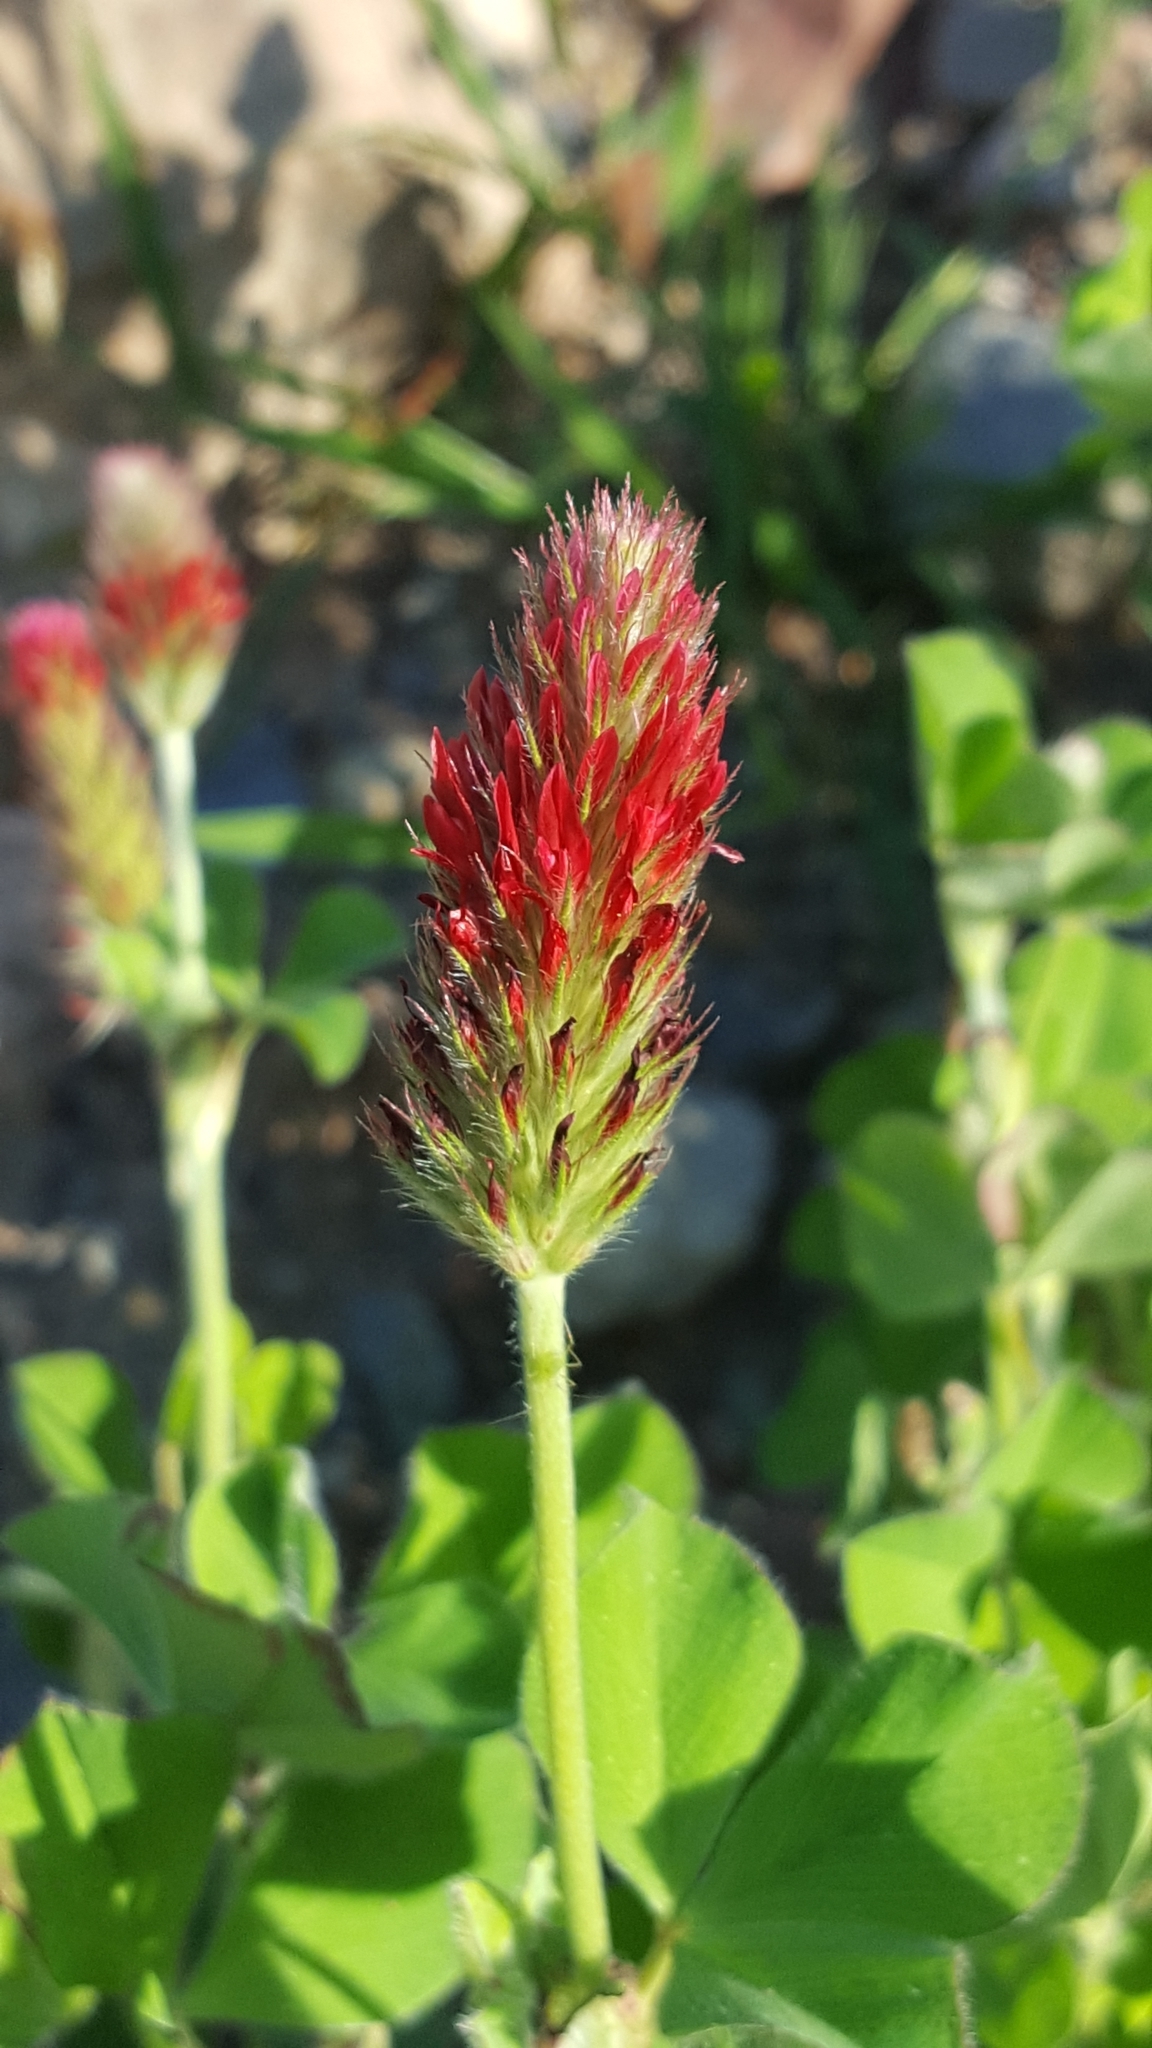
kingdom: Plantae
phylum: Tracheophyta
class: Magnoliopsida
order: Fabales
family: Fabaceae
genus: Trifolium
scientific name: Trifolium incarnatum
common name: Crimson clover
